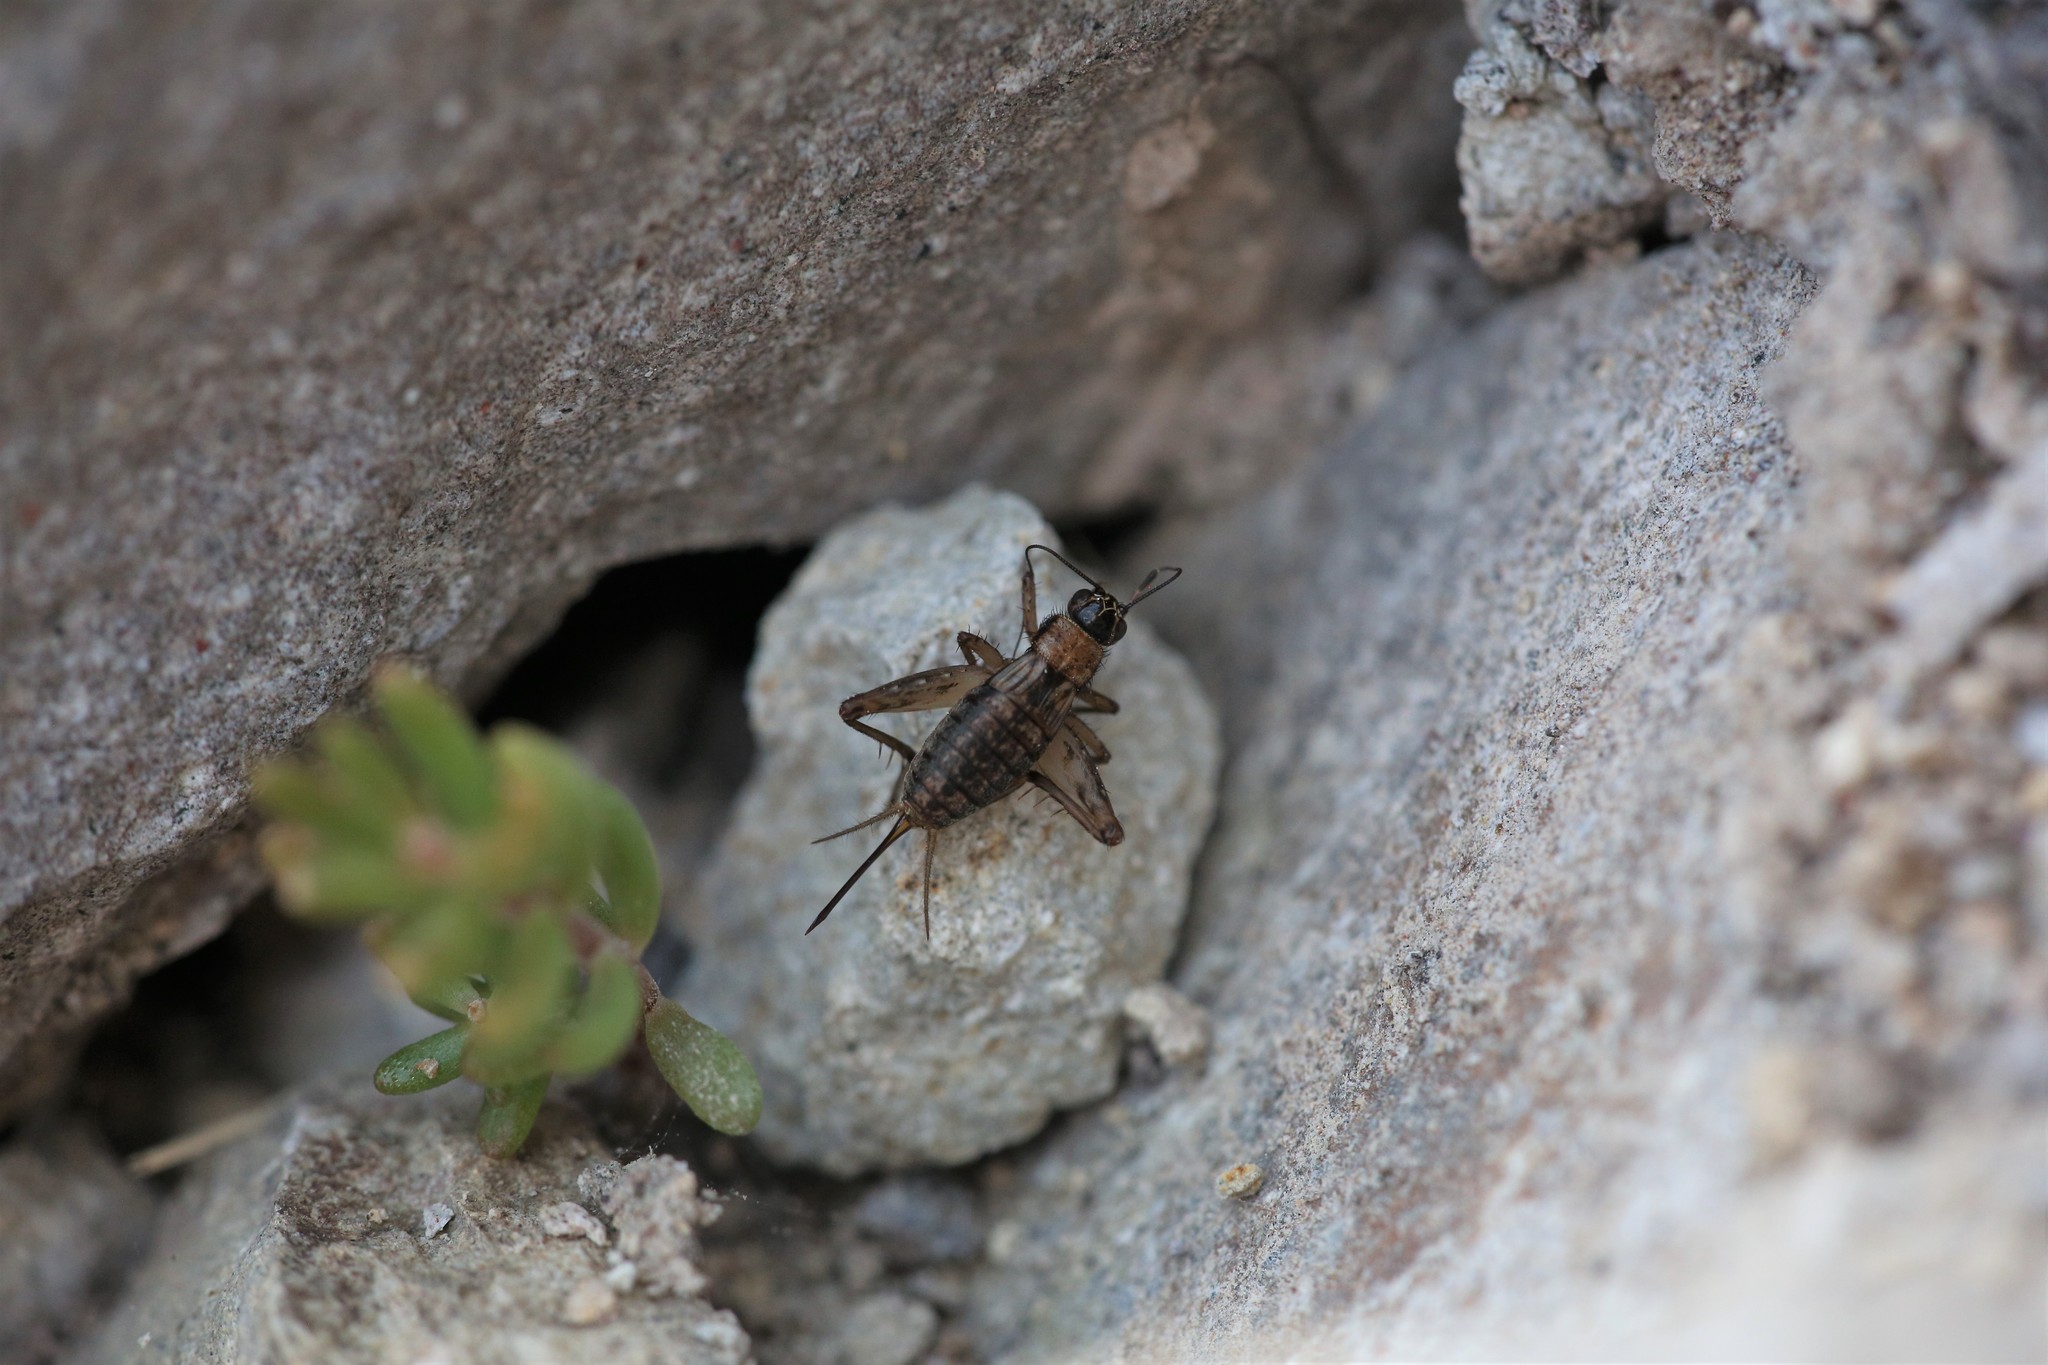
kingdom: Animalia
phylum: Arthropoda
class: Insecta
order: Orthoptera
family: Trigonidiidae
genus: Nemobius
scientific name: Nemobius sylvestris
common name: Wood-cricket
